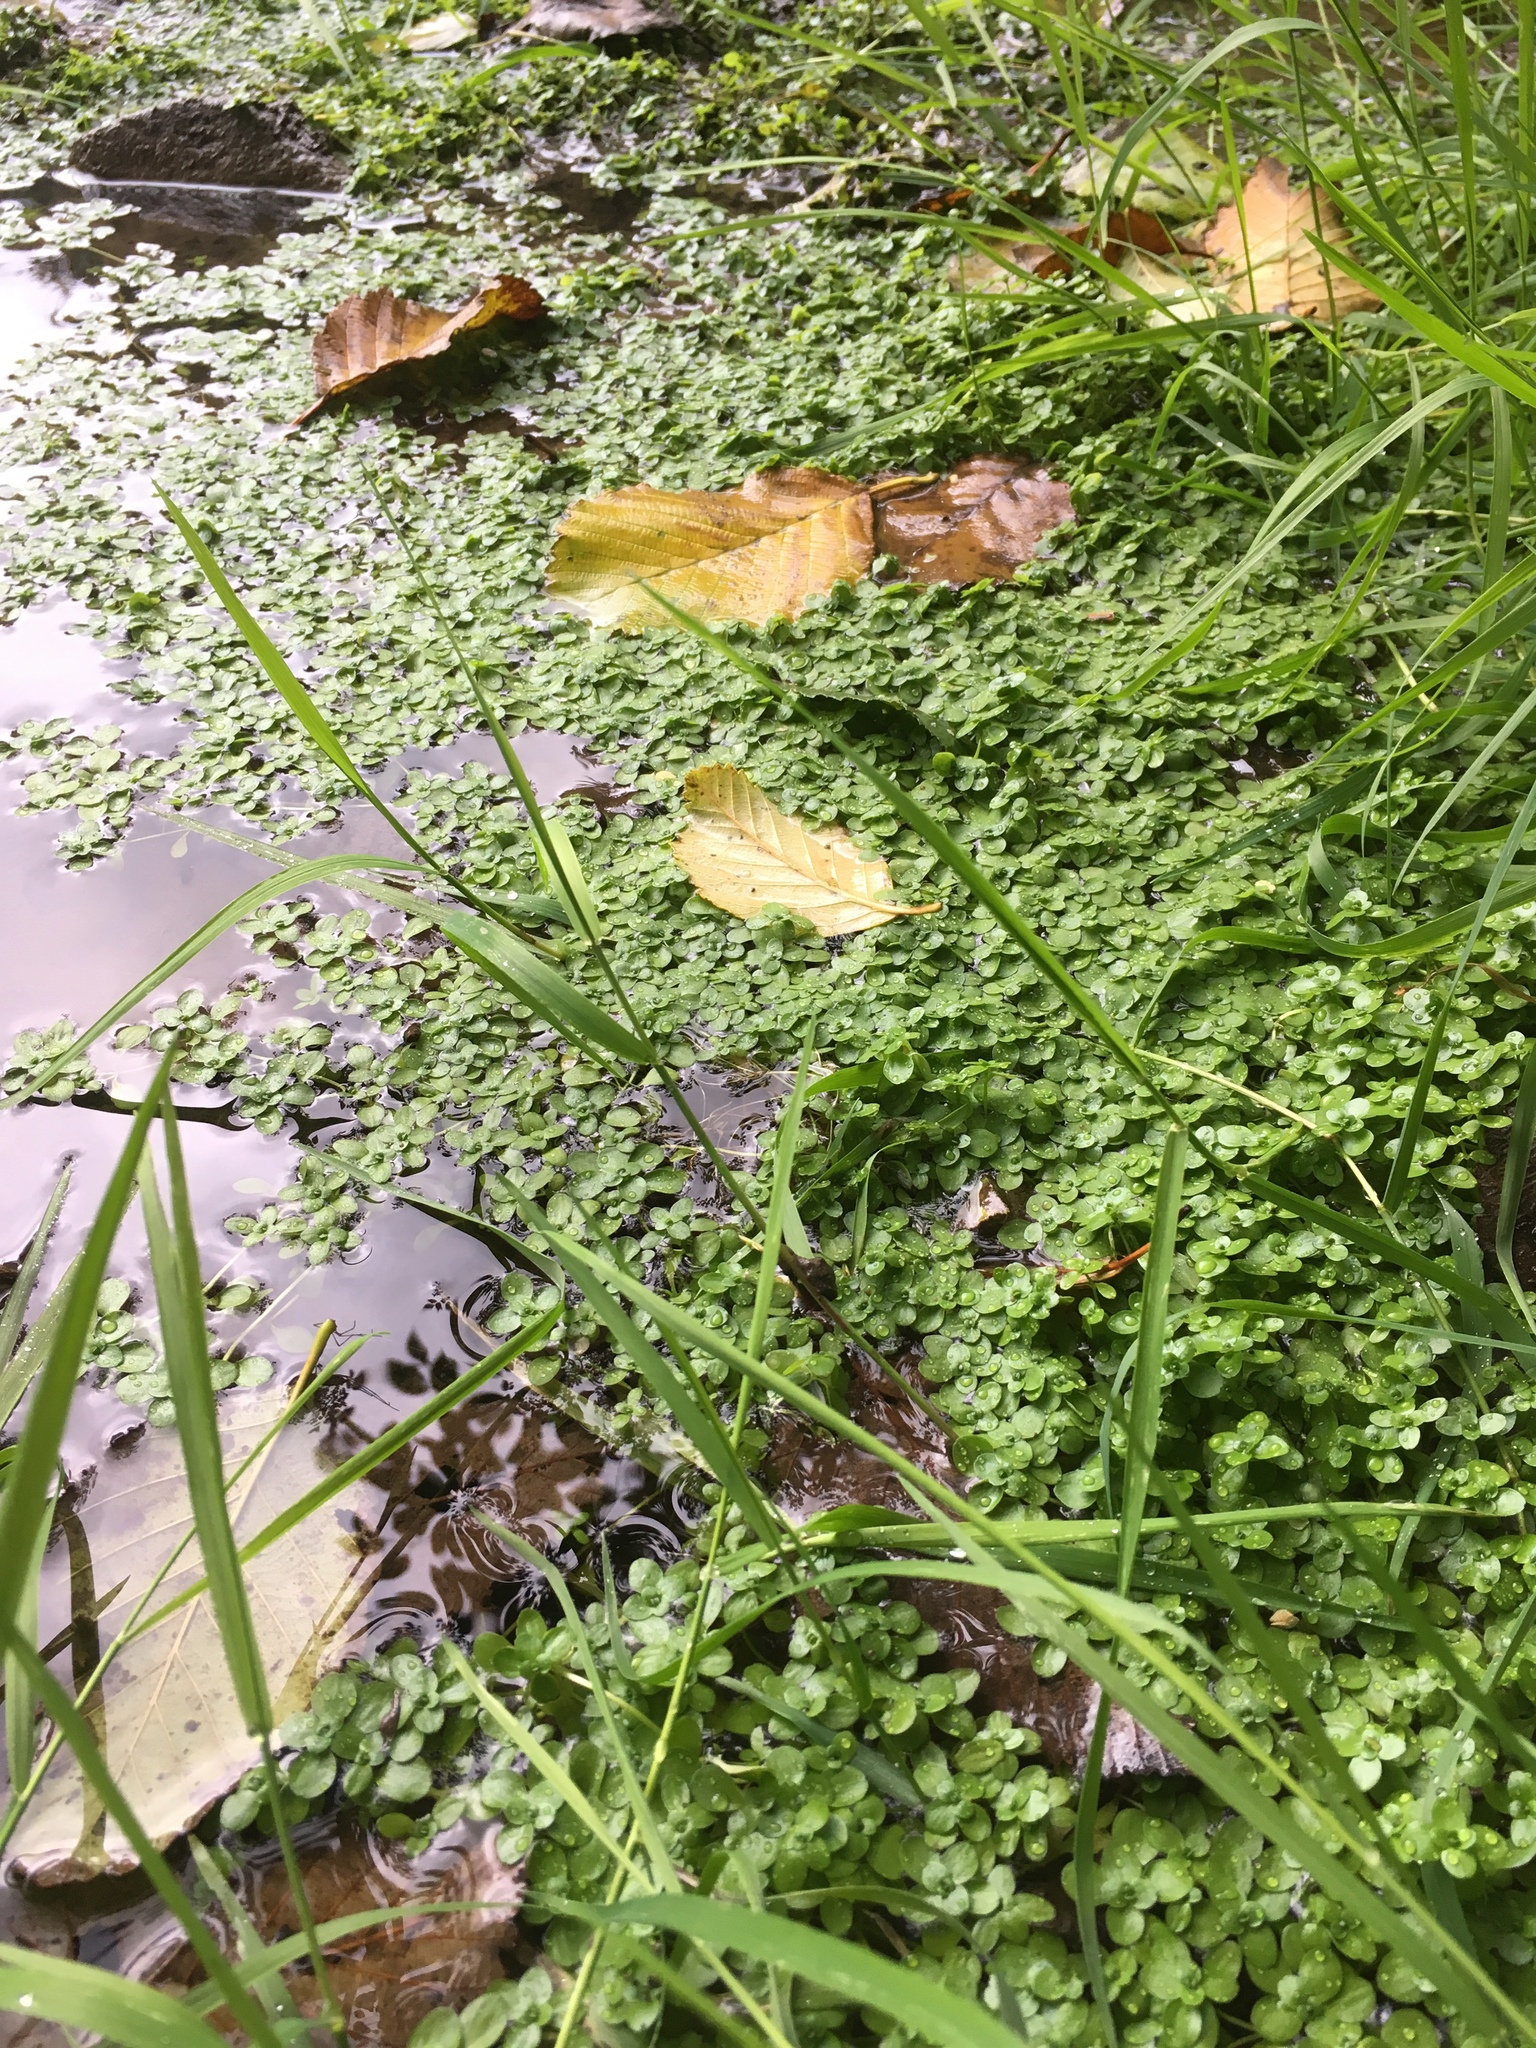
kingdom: Plantae
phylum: Tracheophyta
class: Magnoliopsida
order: Lamiales
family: Plantaginaceae
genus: Callitriche
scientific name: Callitriche stagnalis
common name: Common water-starwort
